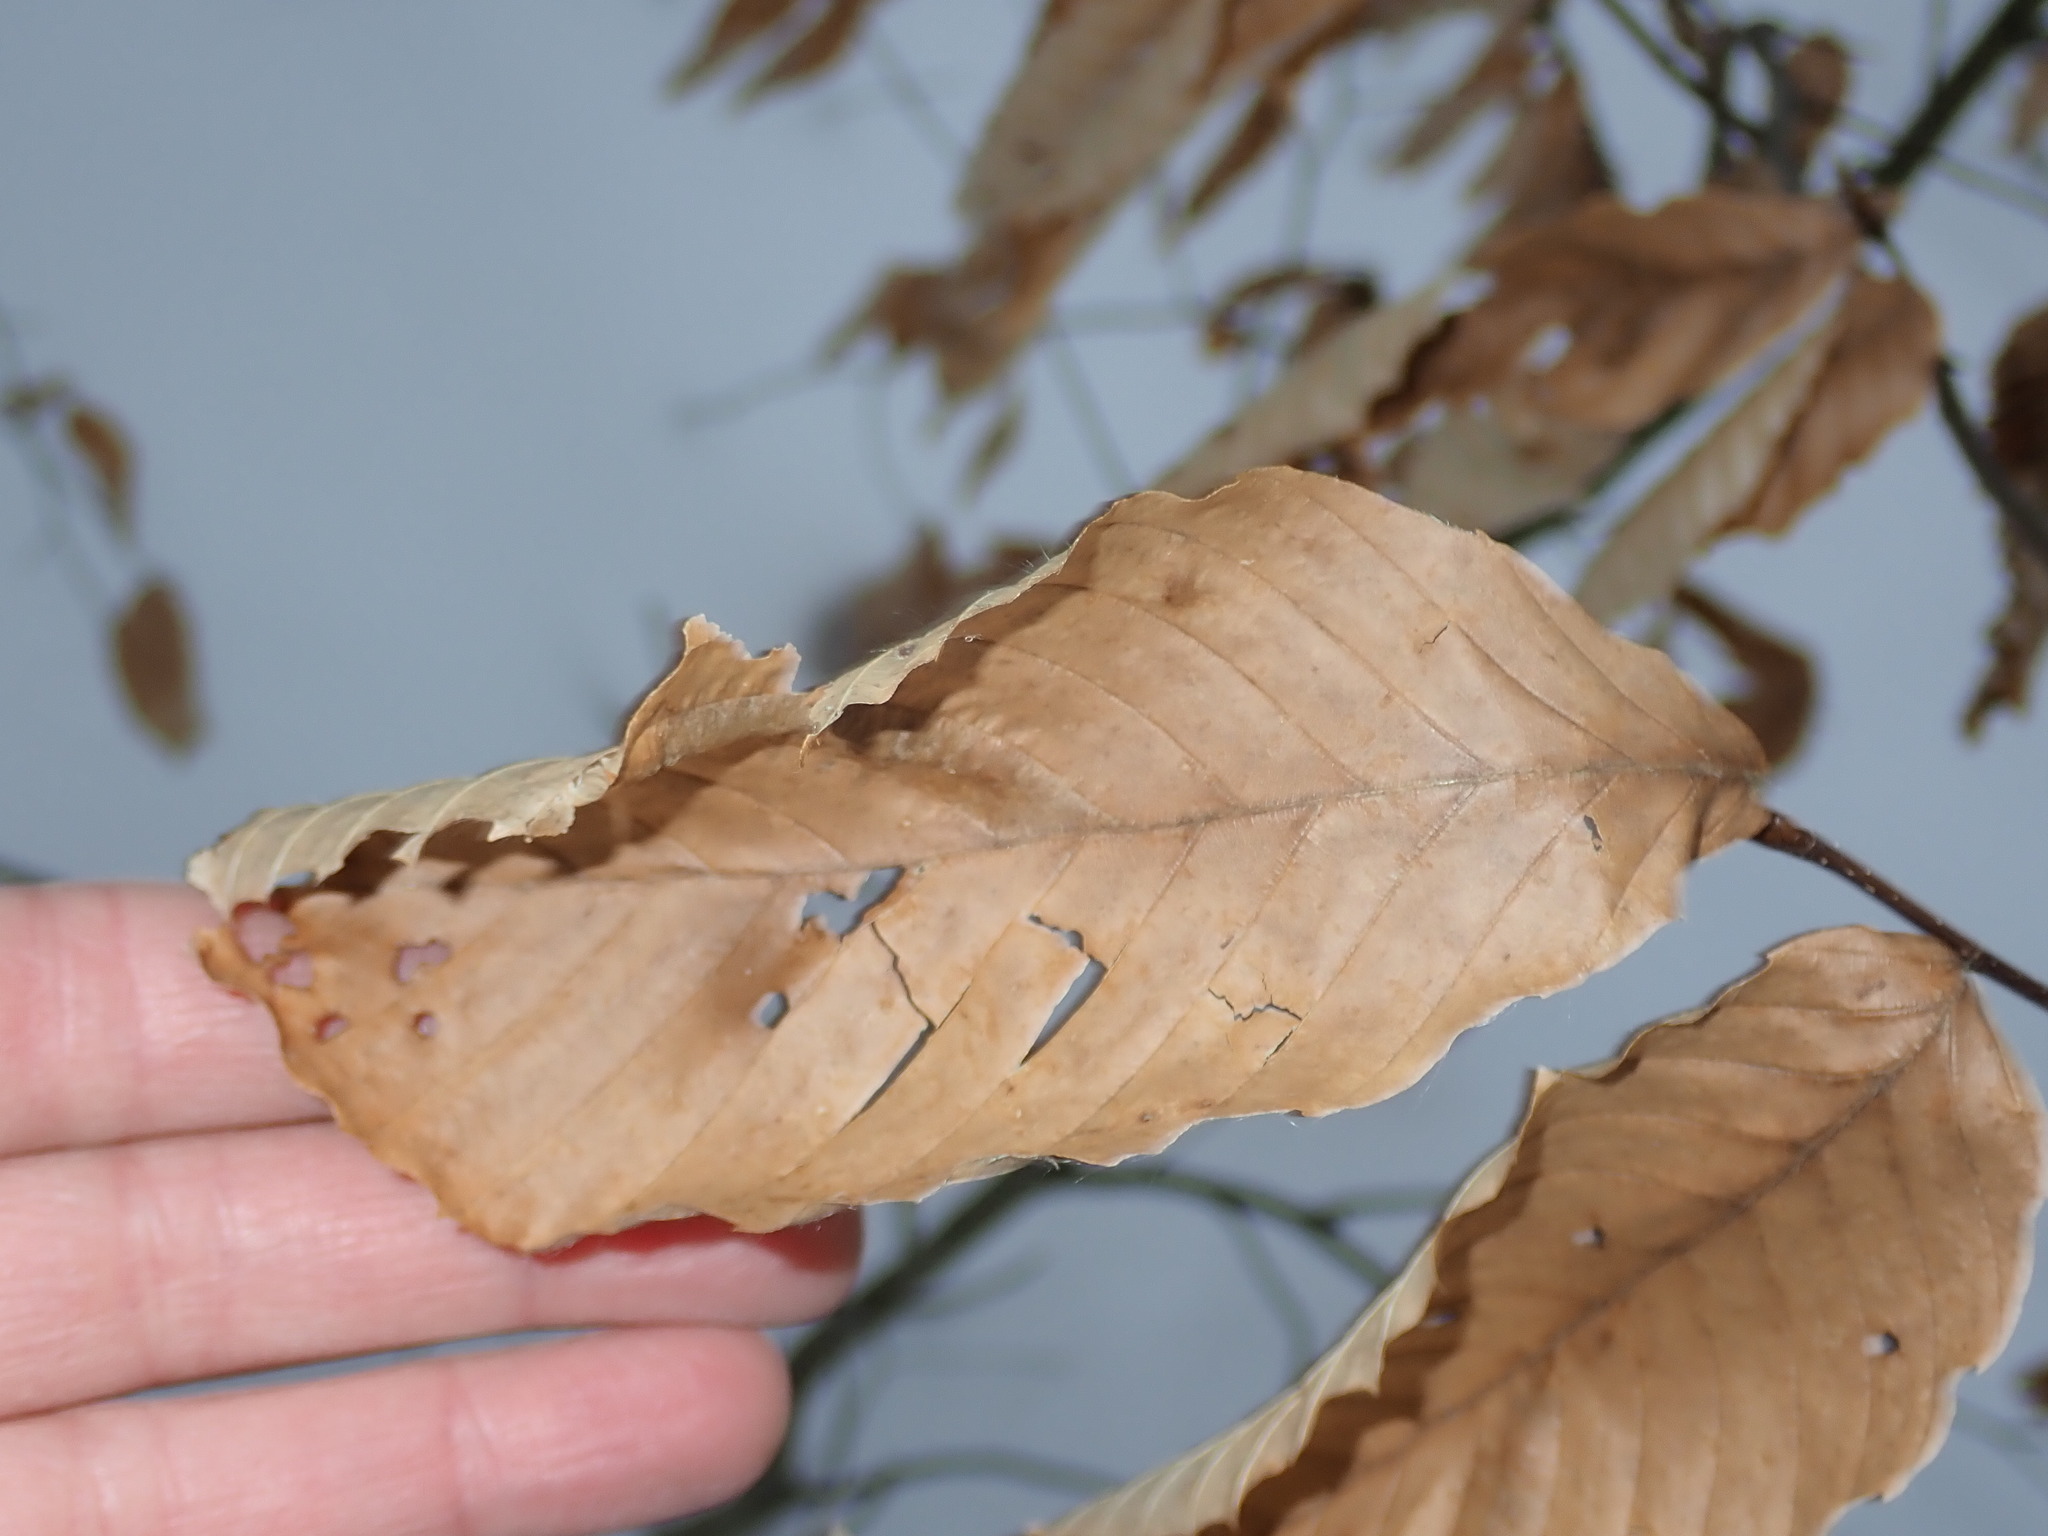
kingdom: Plantae
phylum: Tracheophyta
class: Magnoliopsida
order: Fagales
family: Fagaceae
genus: Fagus
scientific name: Fagus grandifolia
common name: American beech
